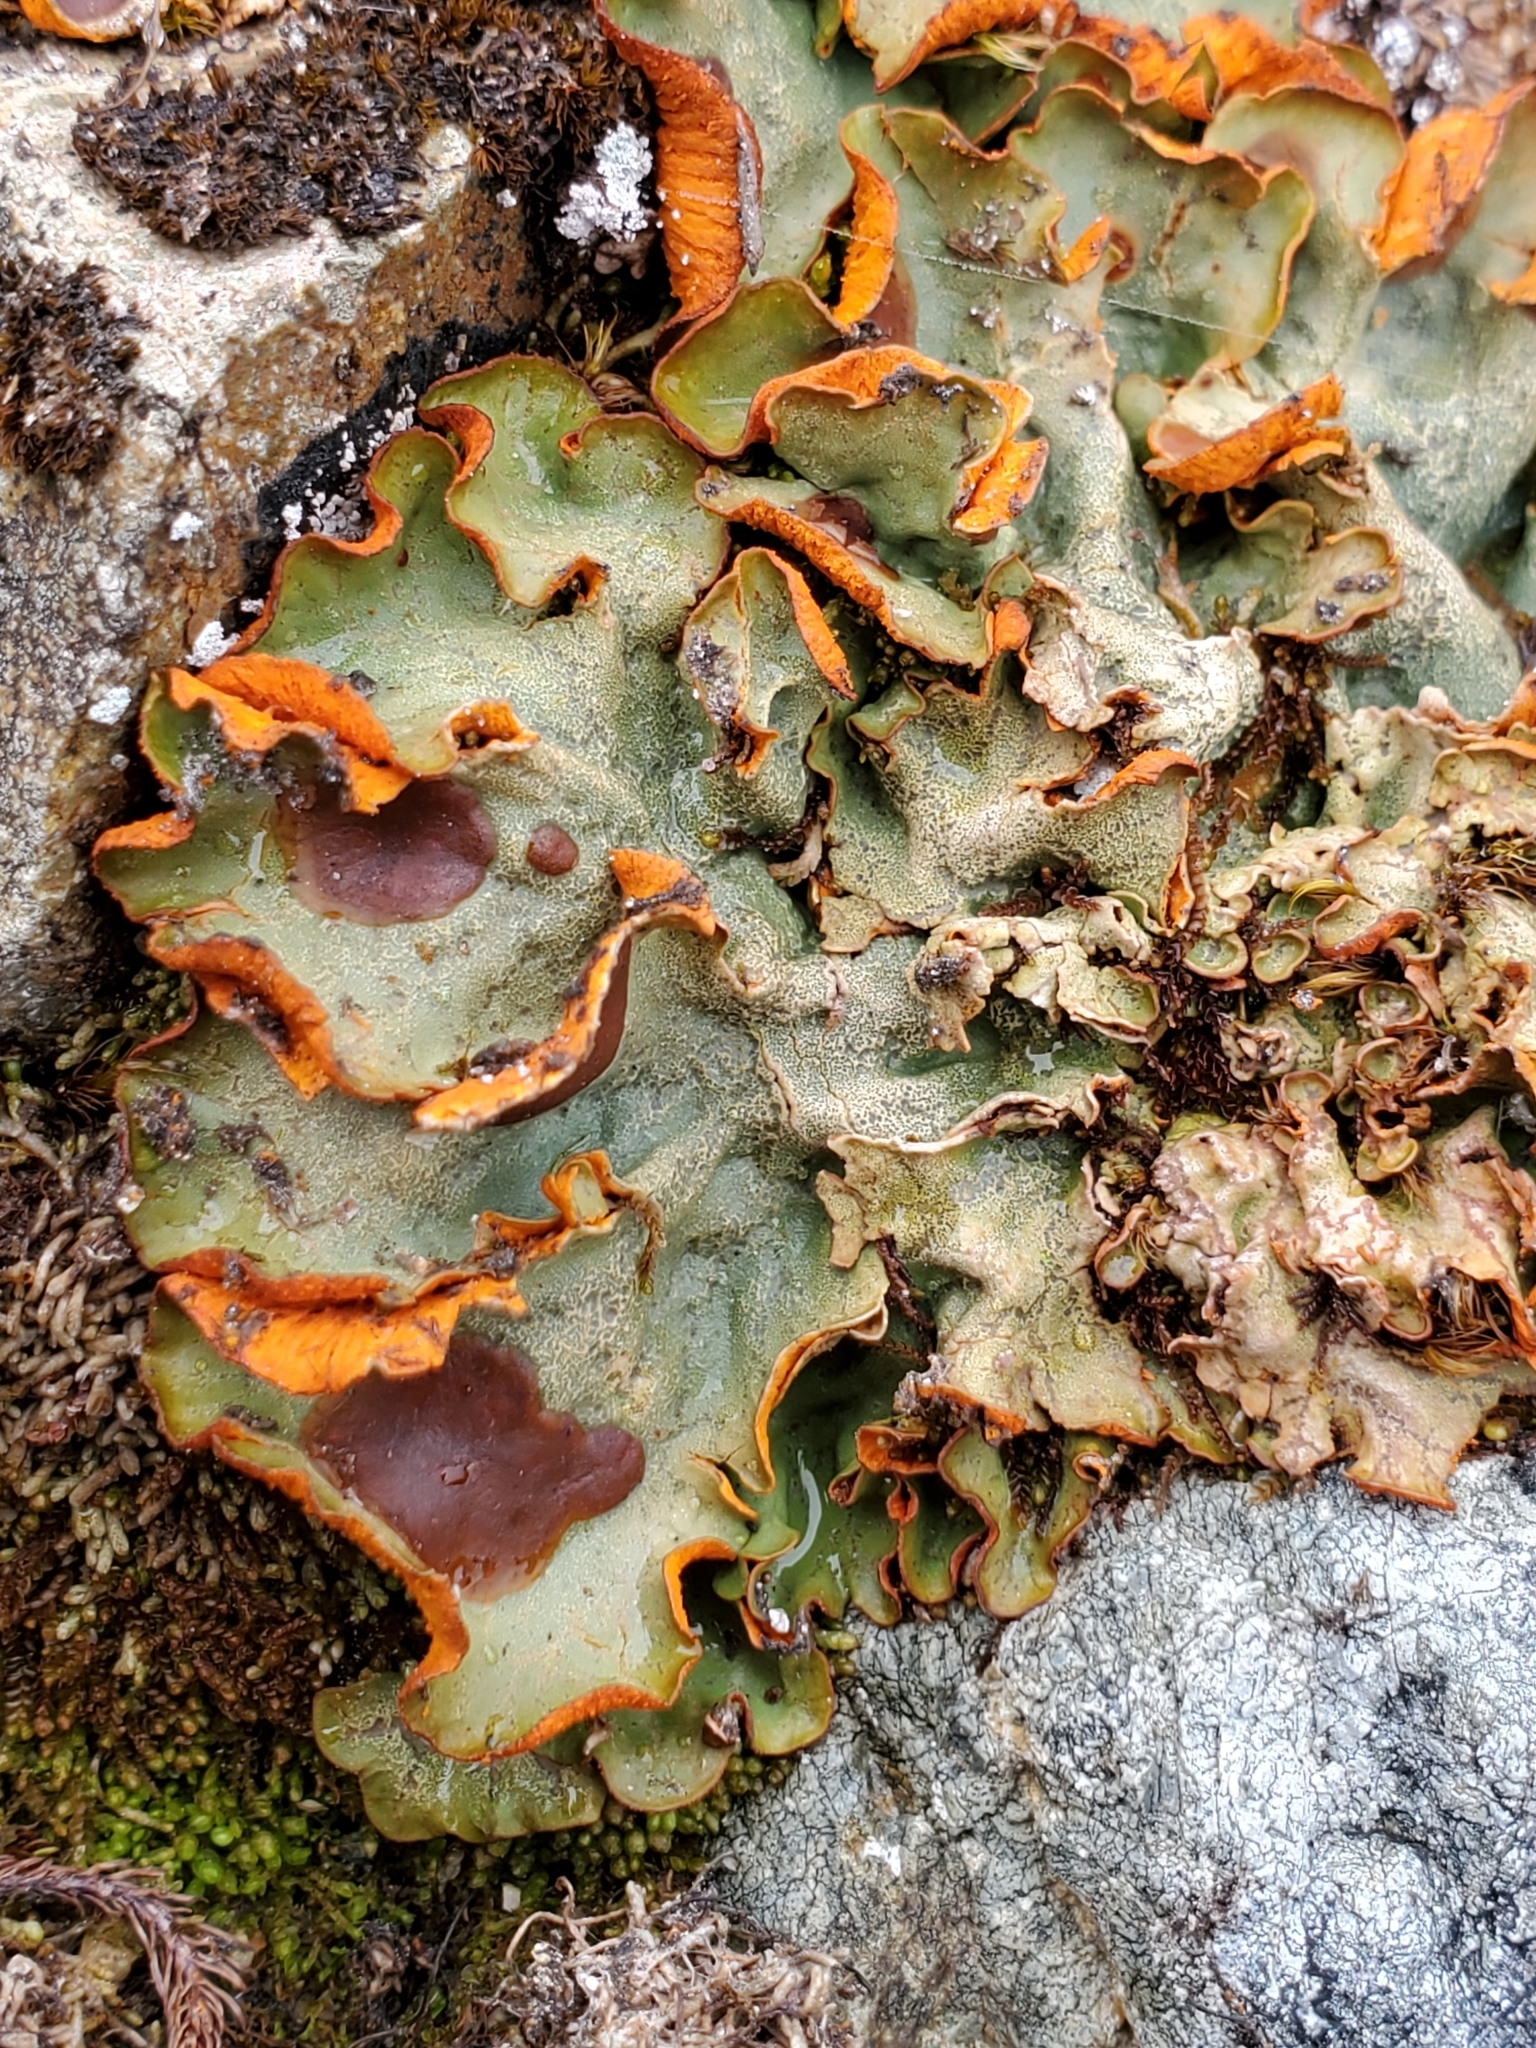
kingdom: Fungi
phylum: Ascomycota
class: Lecanoromycetes
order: Peltigerales
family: Peltigeraceae
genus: Solorina
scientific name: Solorina crocea
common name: Mountain saffron
